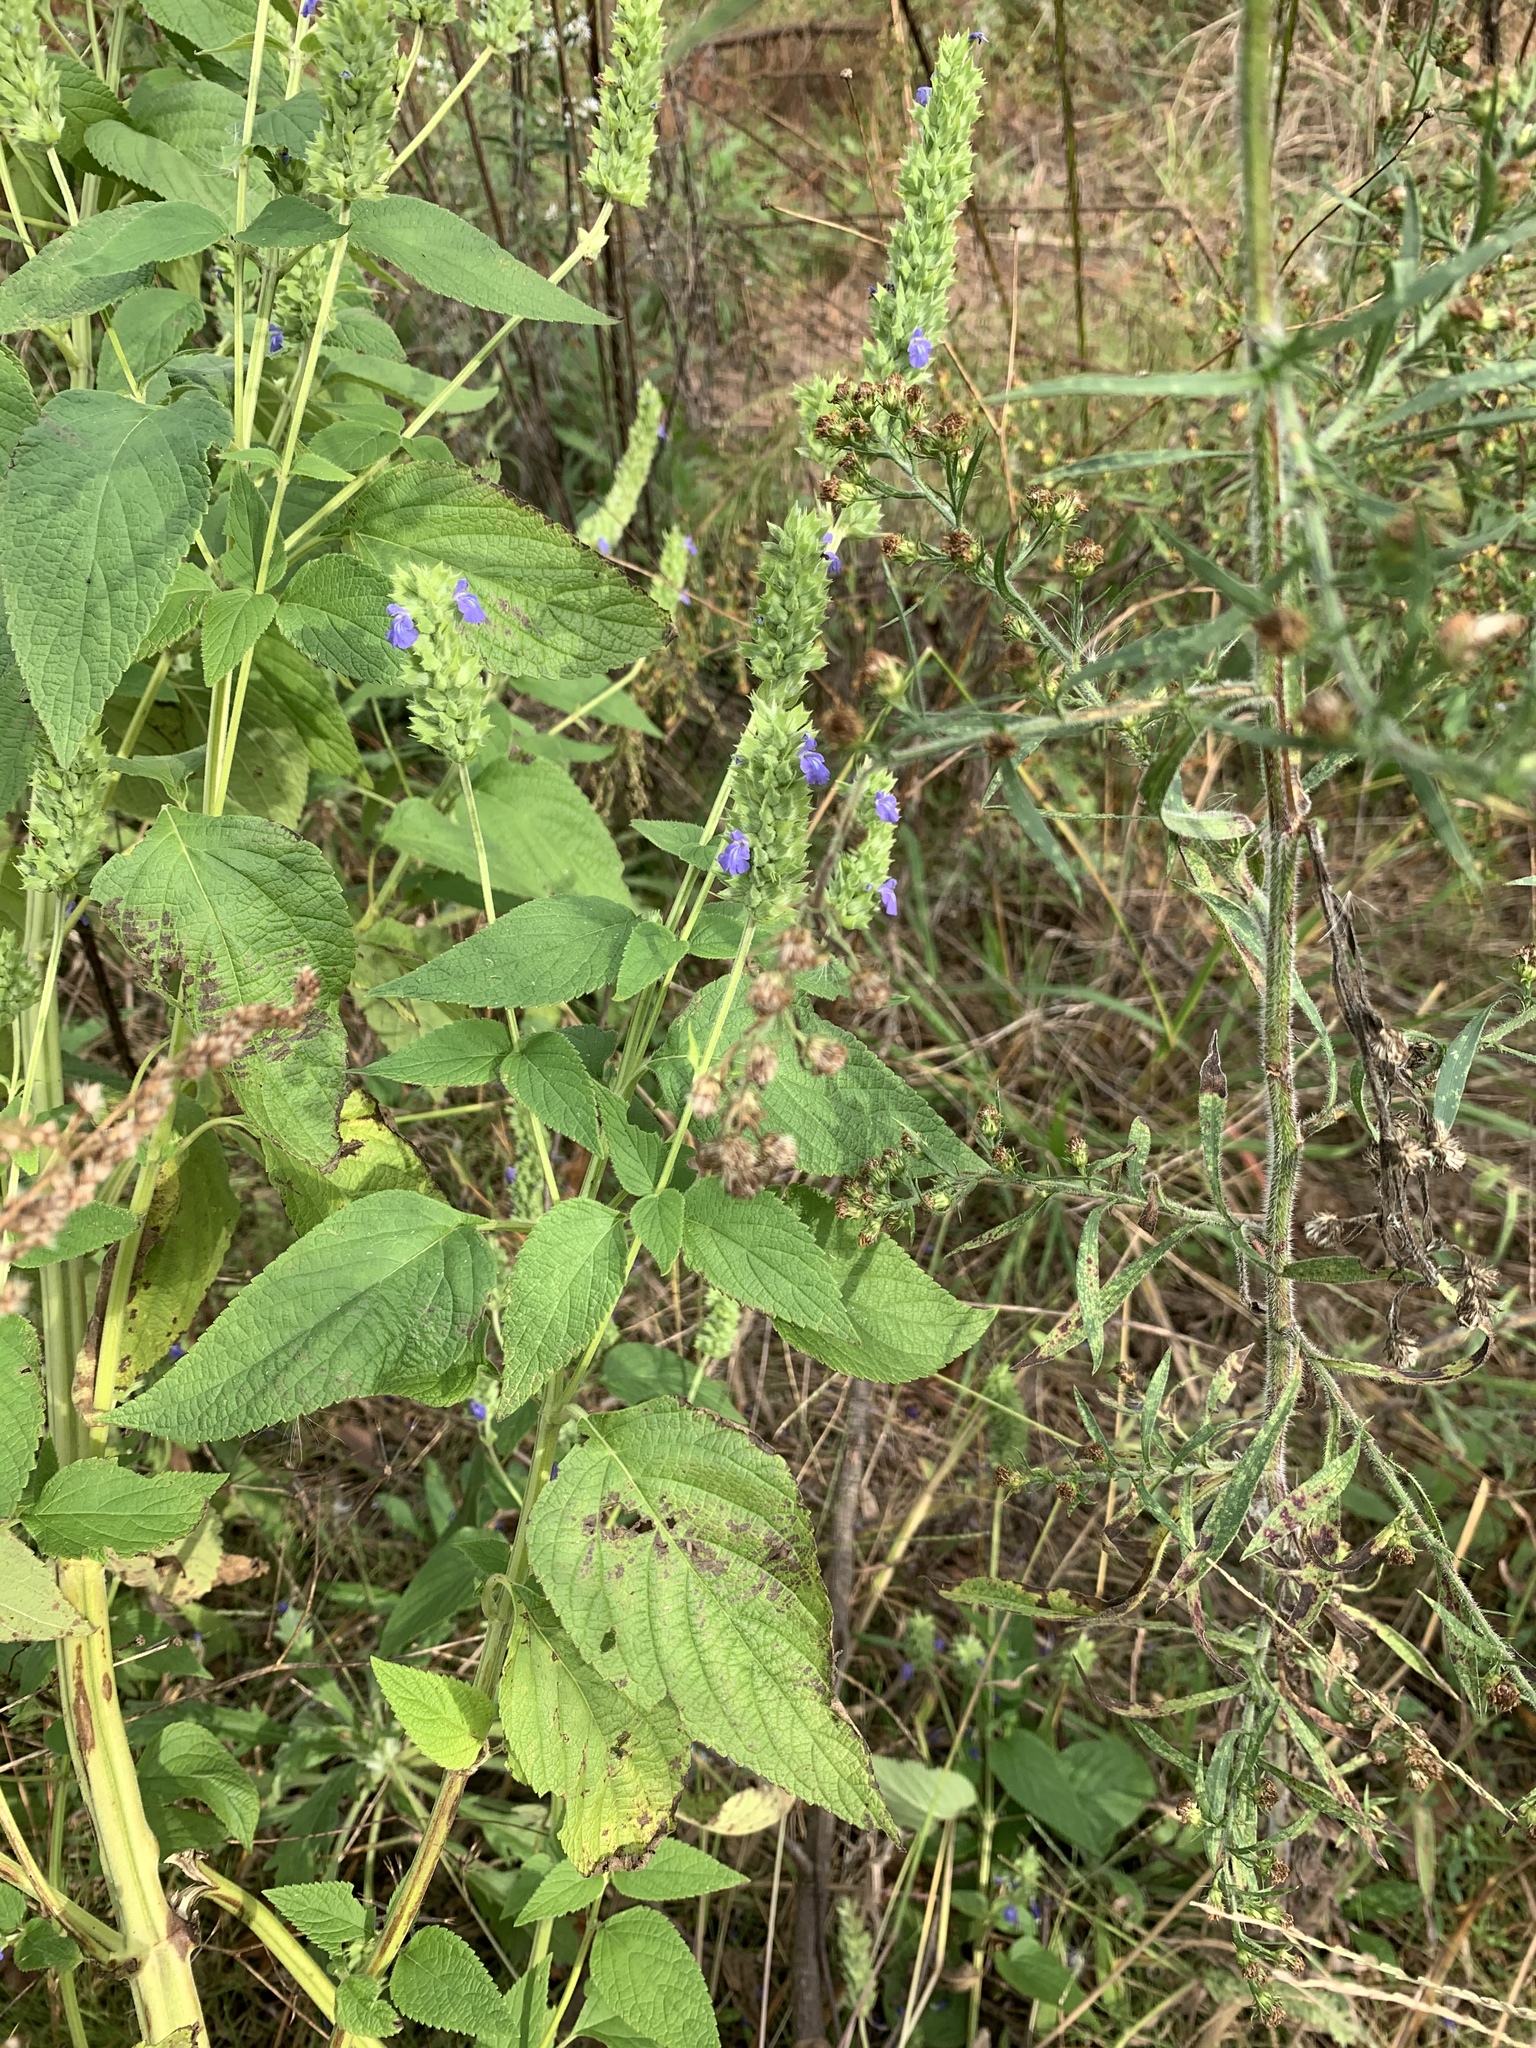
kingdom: Plantae
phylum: Tracheophyta
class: Magnoliopsida
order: Lamiales
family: Lamiaceae
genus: Salvia
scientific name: Salvia hispanica
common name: Chia
